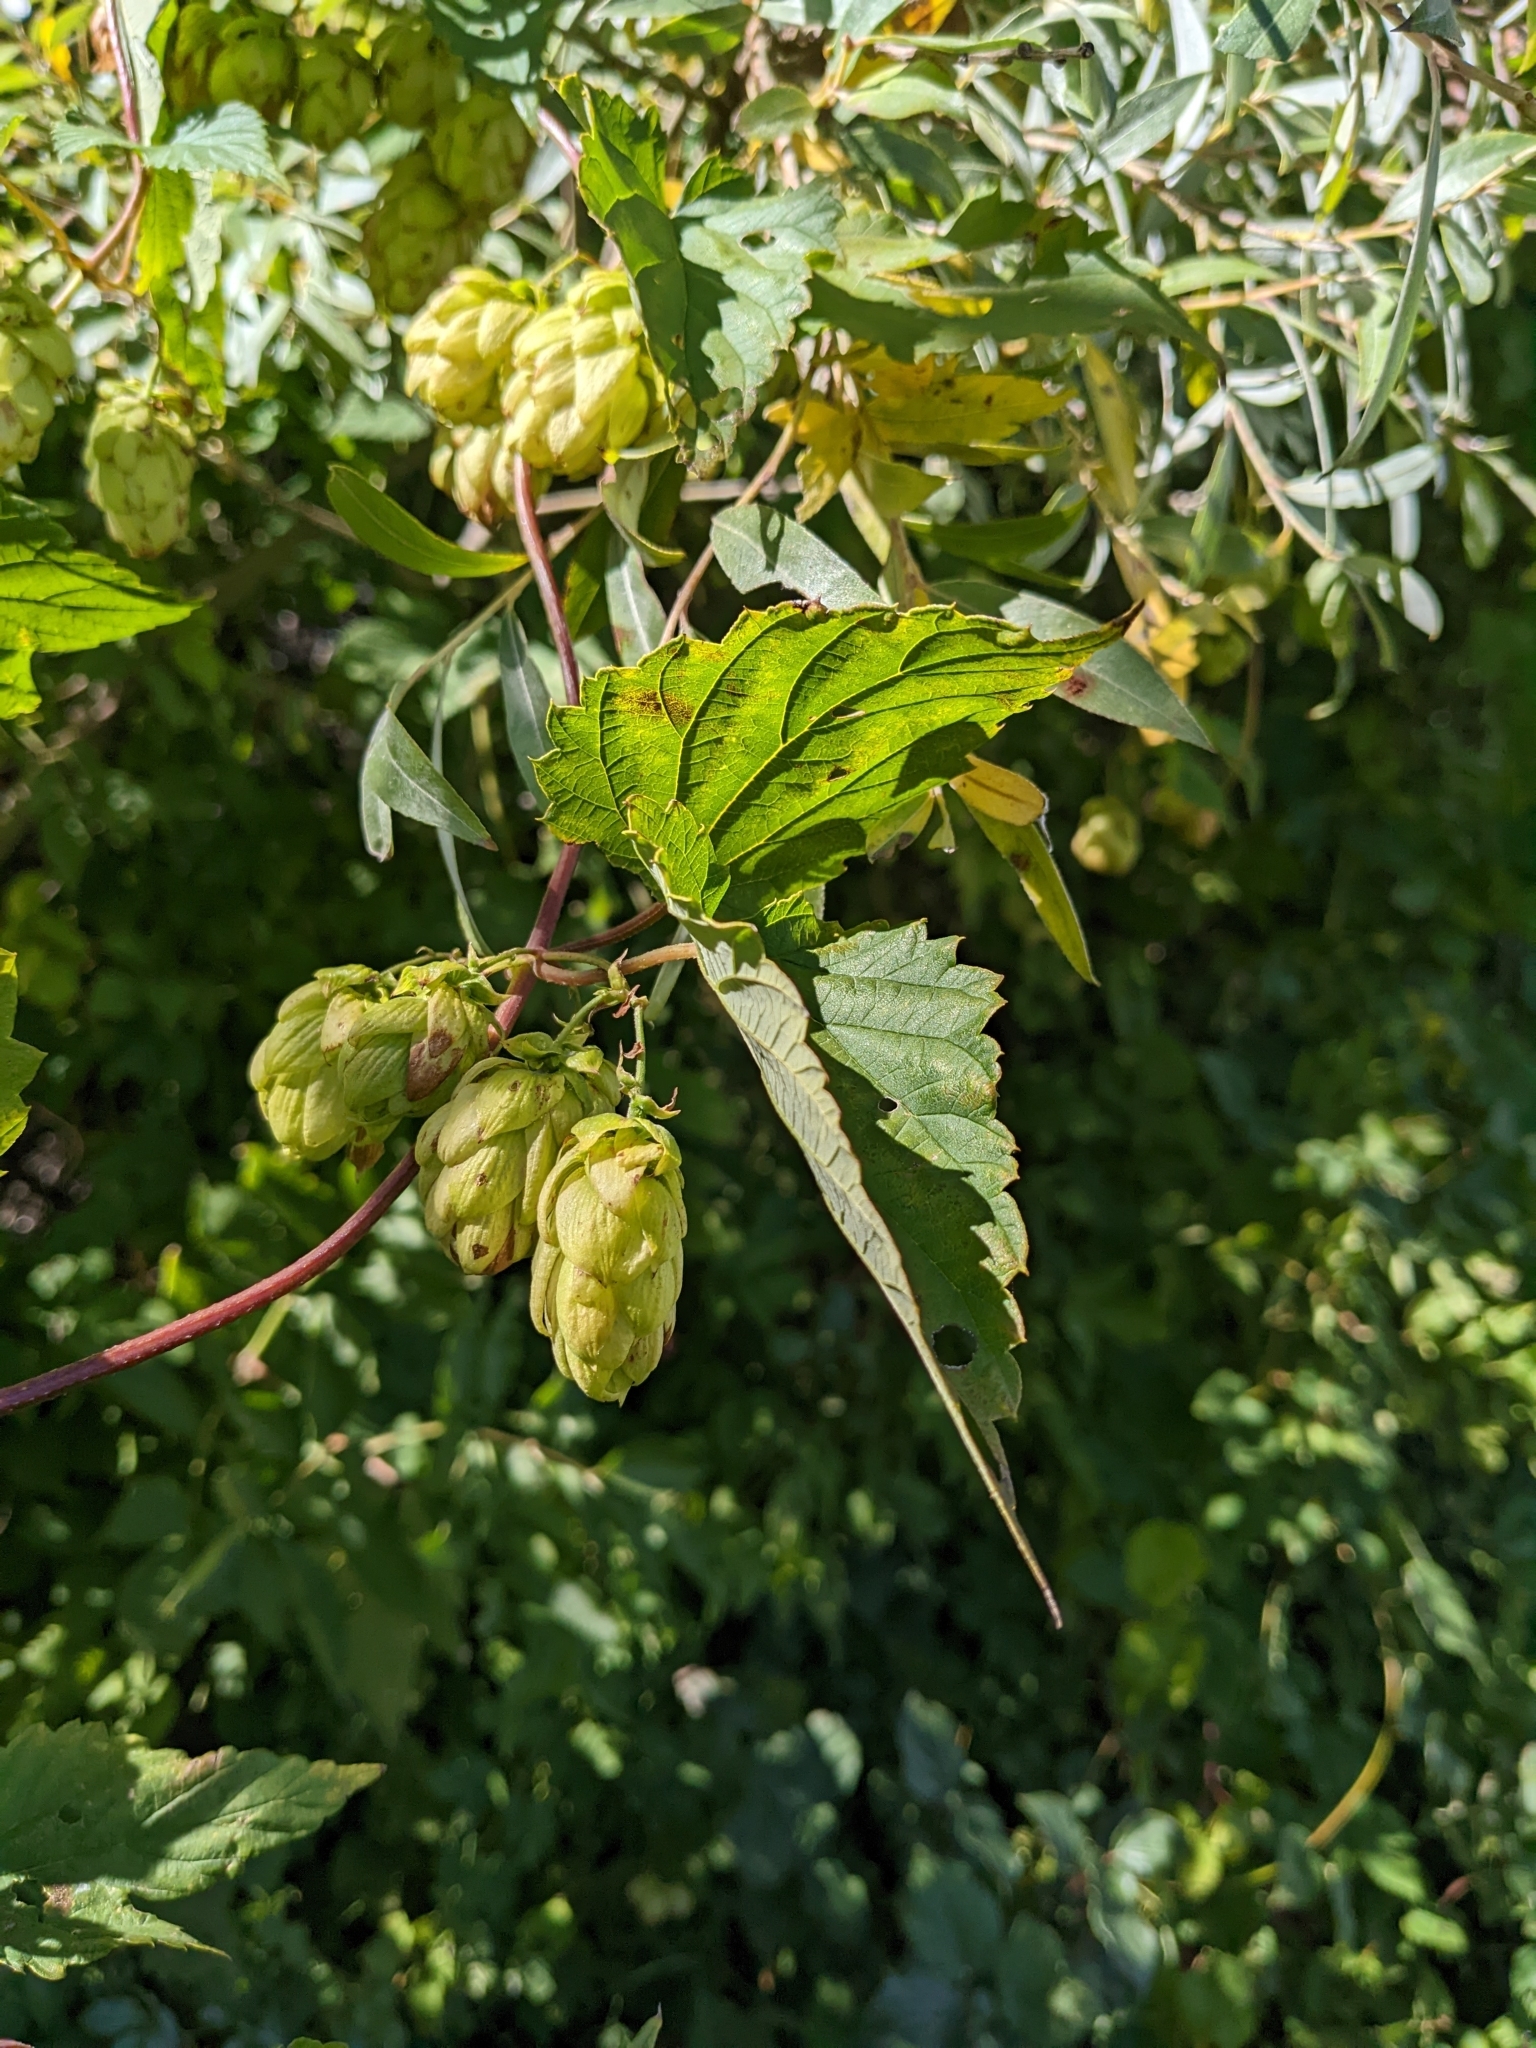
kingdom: Plantae
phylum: Tracheophyta
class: Magnoliopsida
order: Rosales
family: Cannabaceae
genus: Humulus
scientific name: Humulus lupulus
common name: Hop
